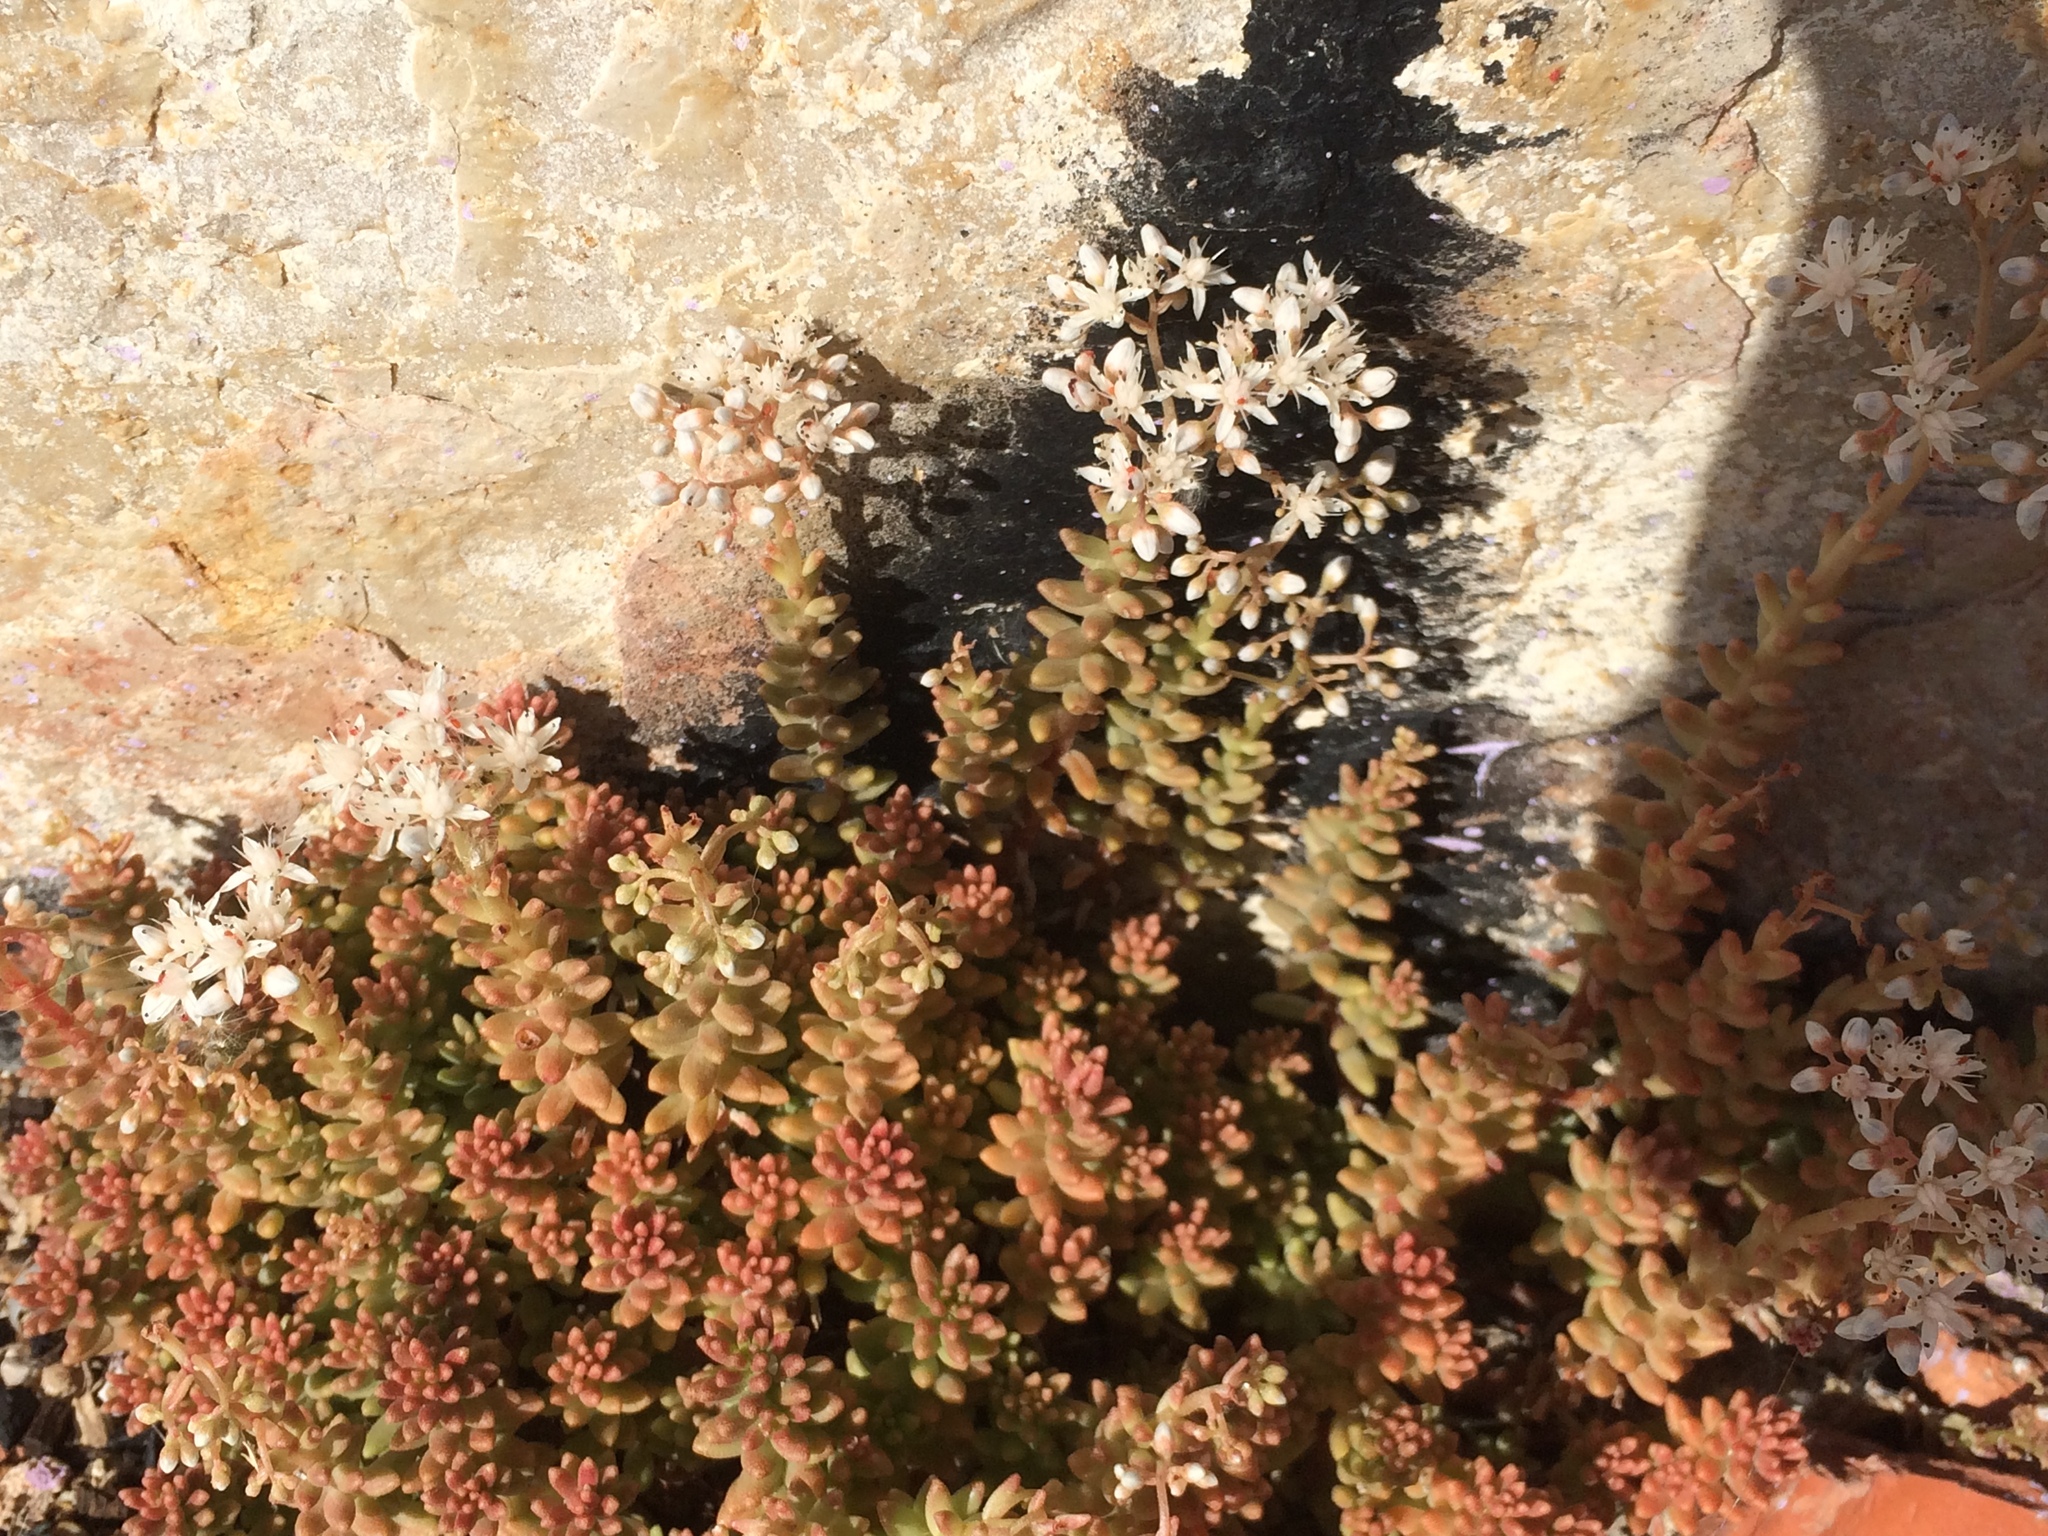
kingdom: Plantae
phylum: Tracheophyta
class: Magnoliopsida
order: Saxifragales
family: Crassulaceae
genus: Sedum
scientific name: Sedum album
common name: White stonecrop
